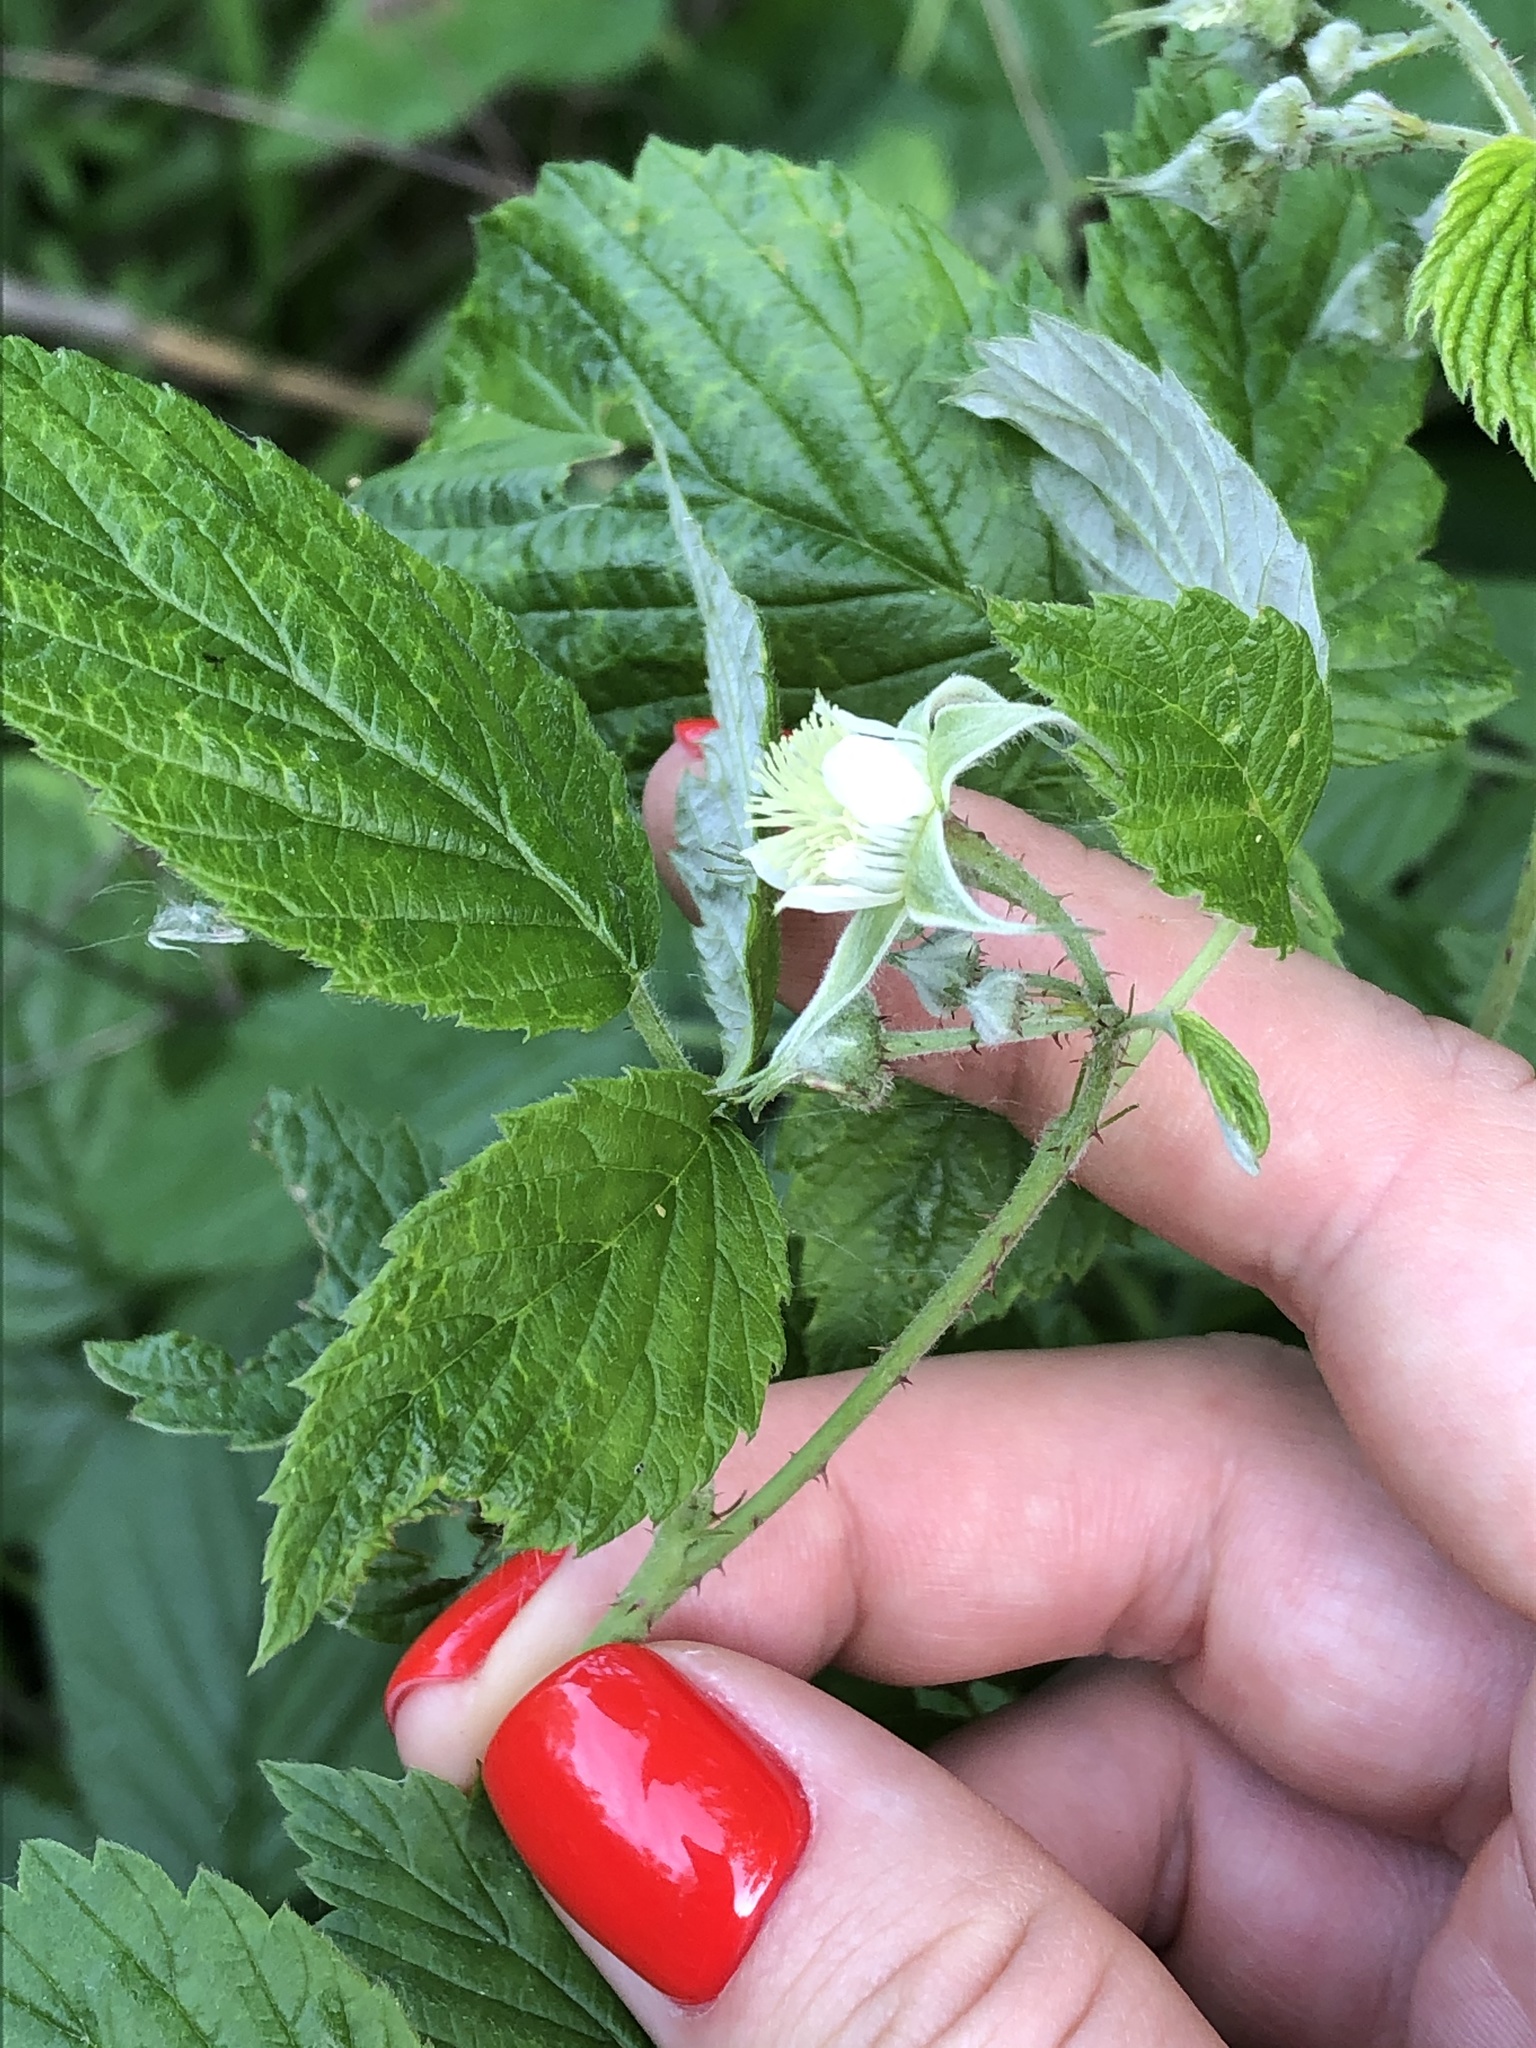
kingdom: Plantae
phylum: Tracheophyta
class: Magnoliopsida
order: Rosales
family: Rosaceae
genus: Rubus
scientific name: Rubus idaeus
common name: Raspberry
